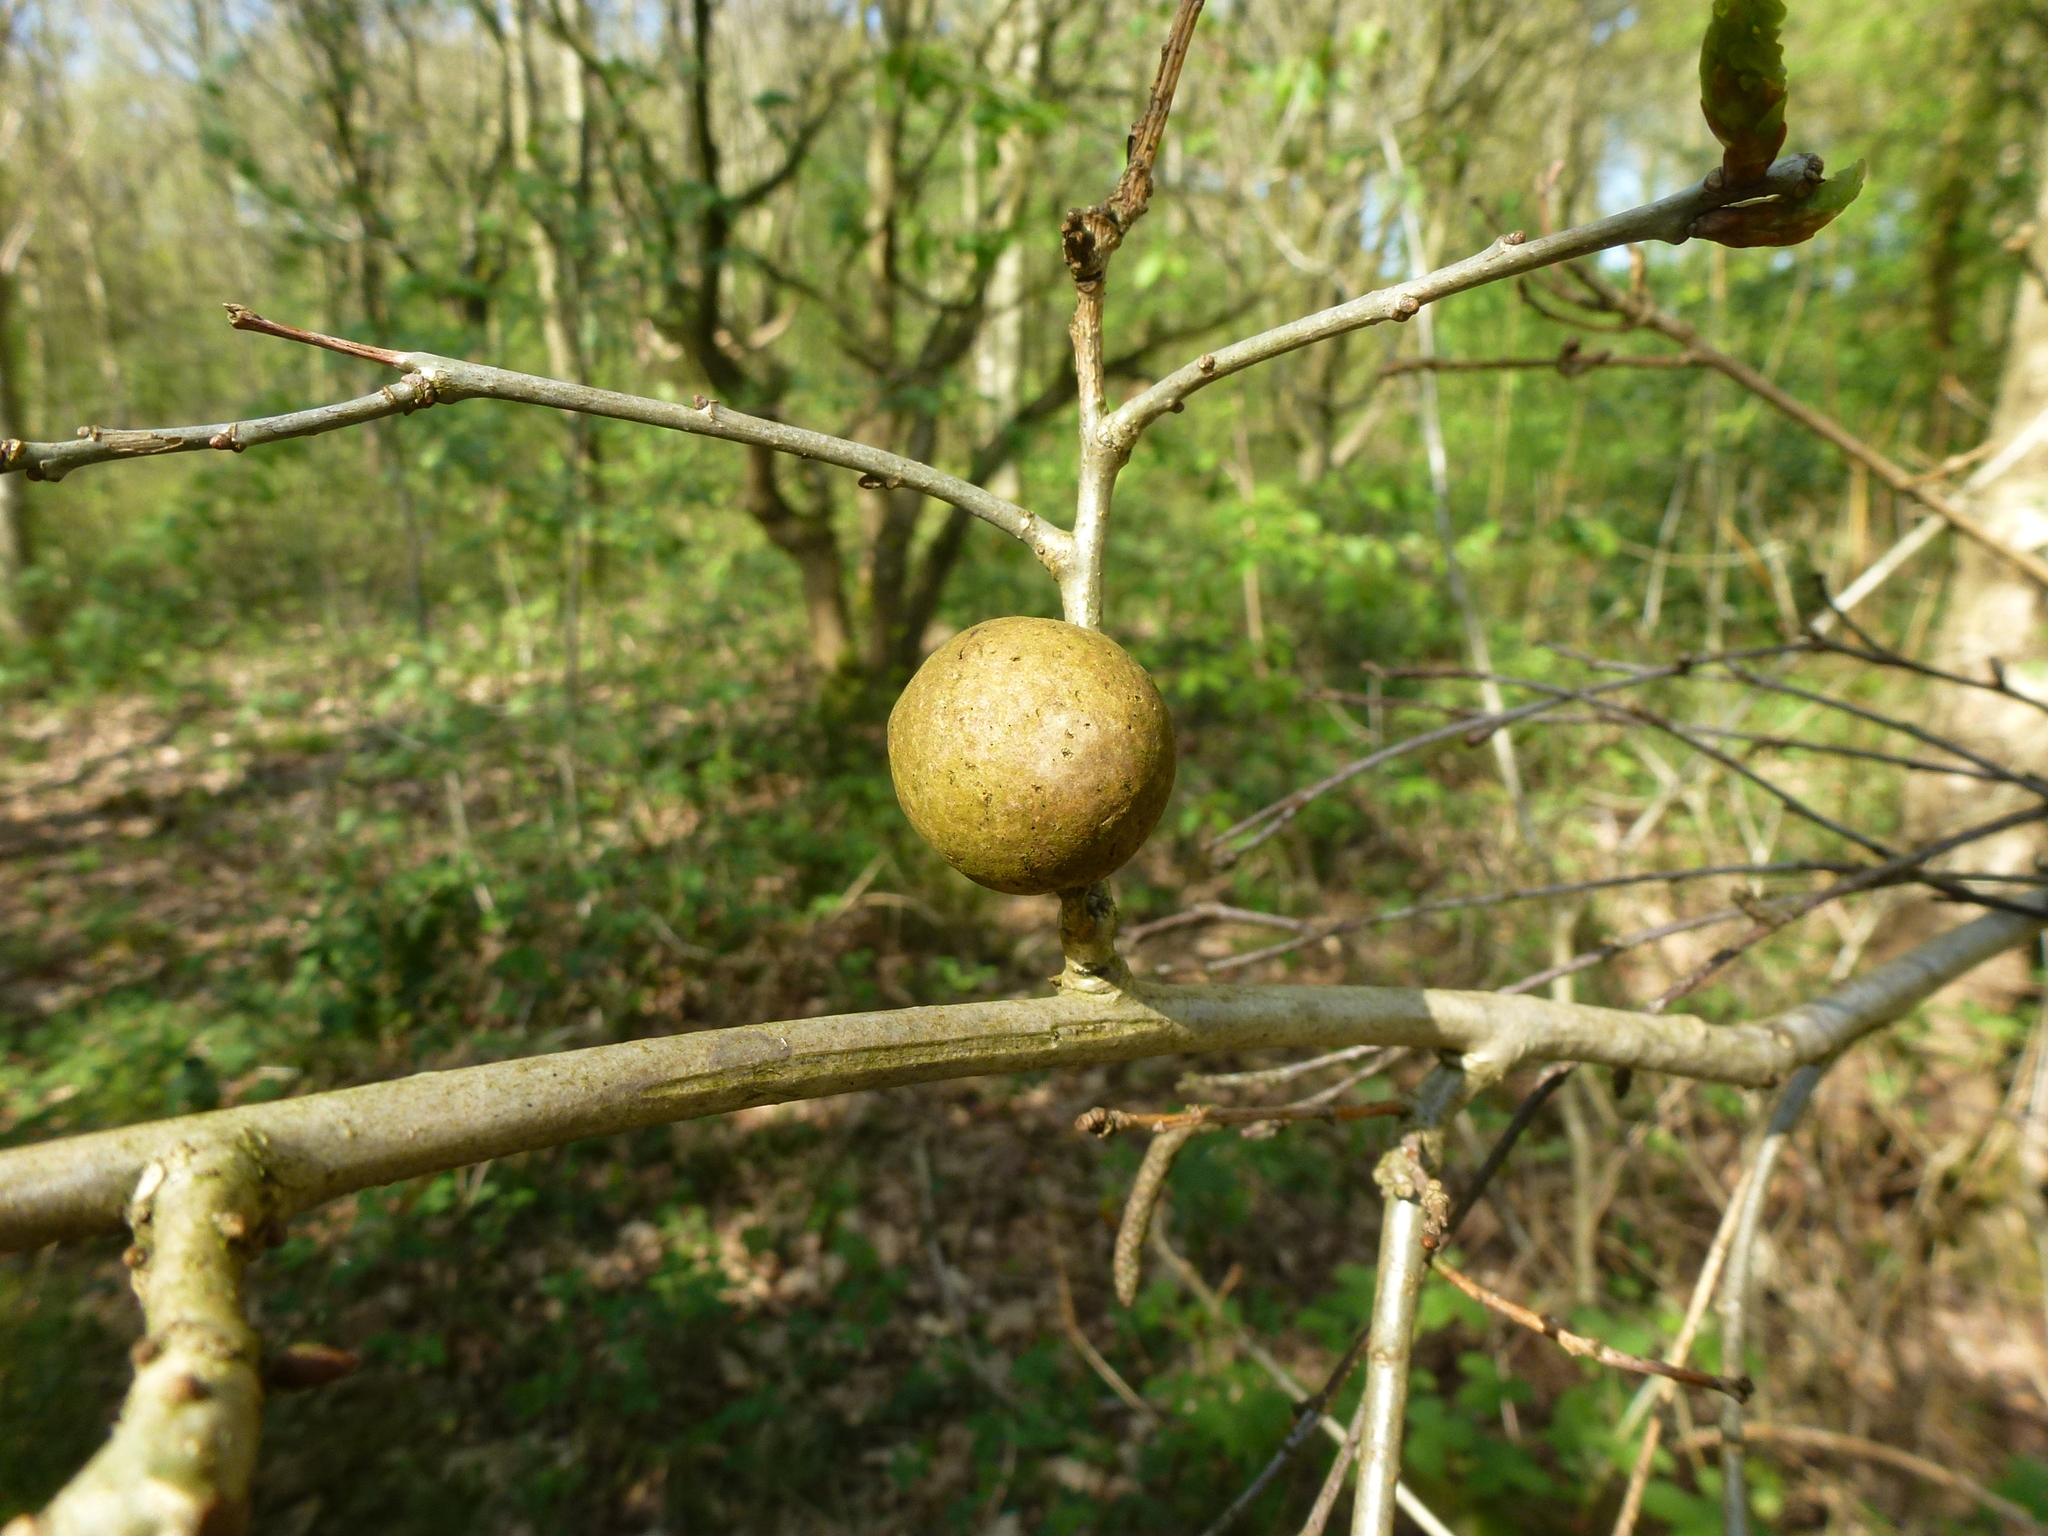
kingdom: Animalia
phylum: Arthropoda
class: Insecta
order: Hymenoptera
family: Cynipidae
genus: Andricus
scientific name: Andricus kollari
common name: Marble gall
